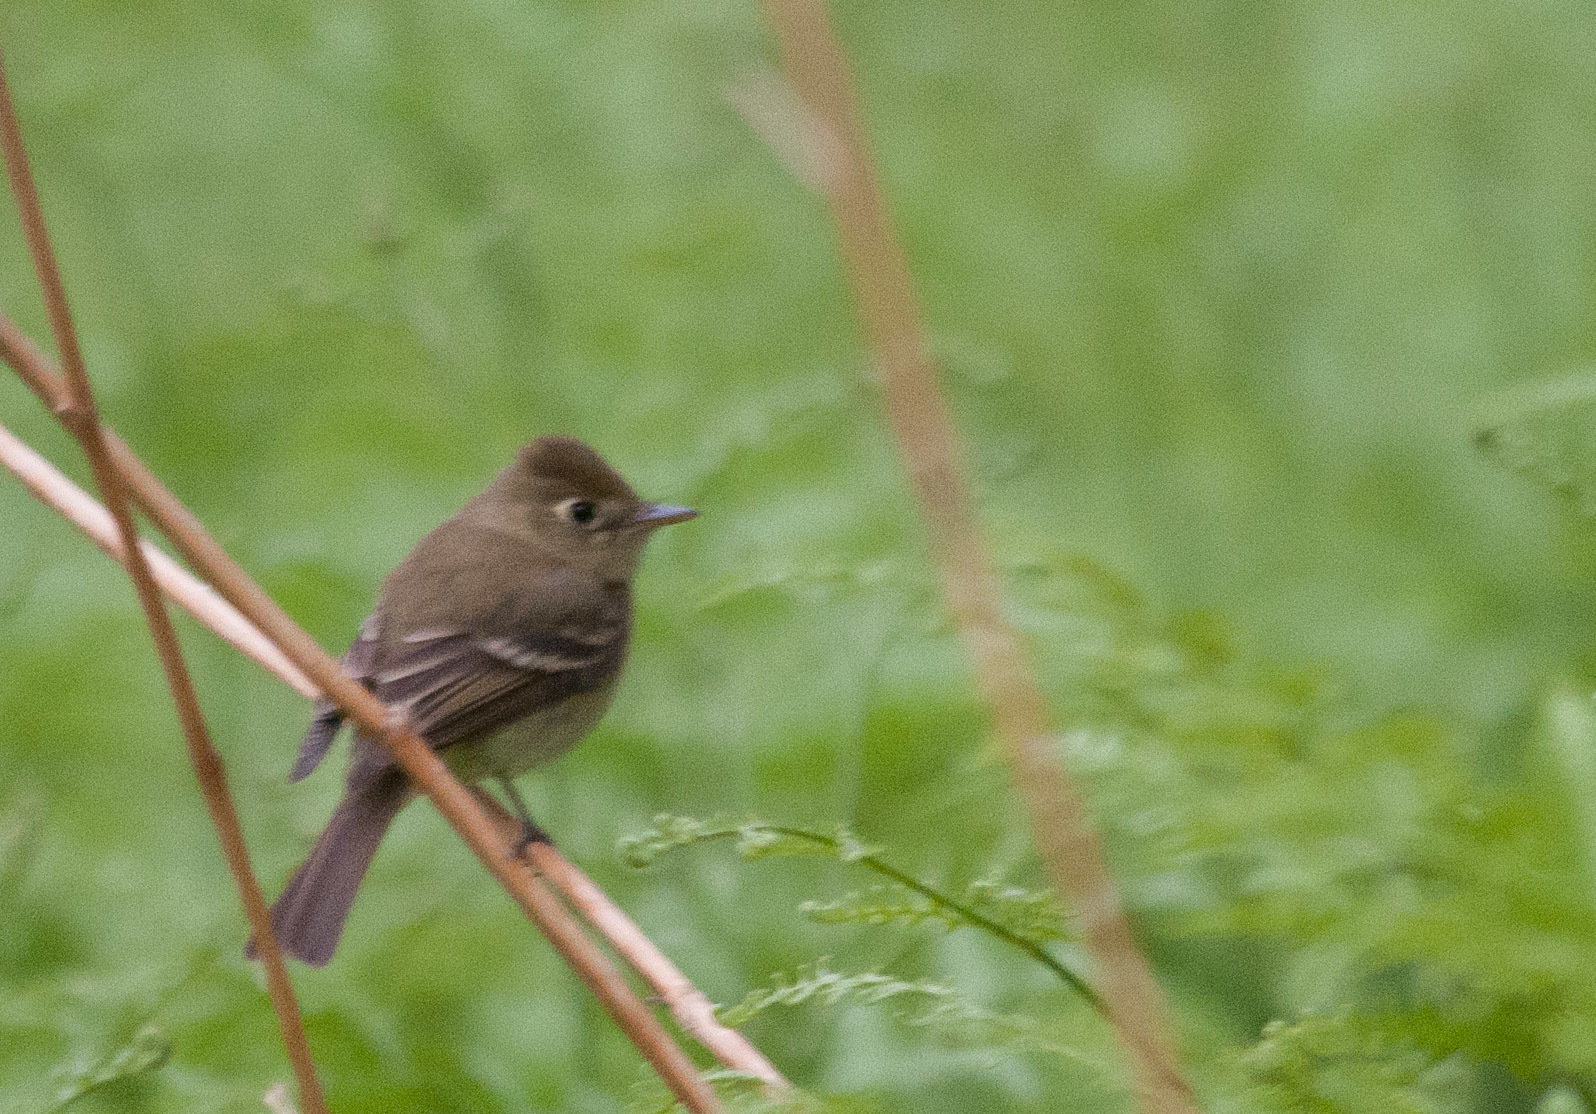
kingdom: Animalia
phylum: Chordata
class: Aves
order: Passeriformes
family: Tyrannidae
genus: Empidonax
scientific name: Empidonax difficilis
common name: Pacific-slope flycatcher
